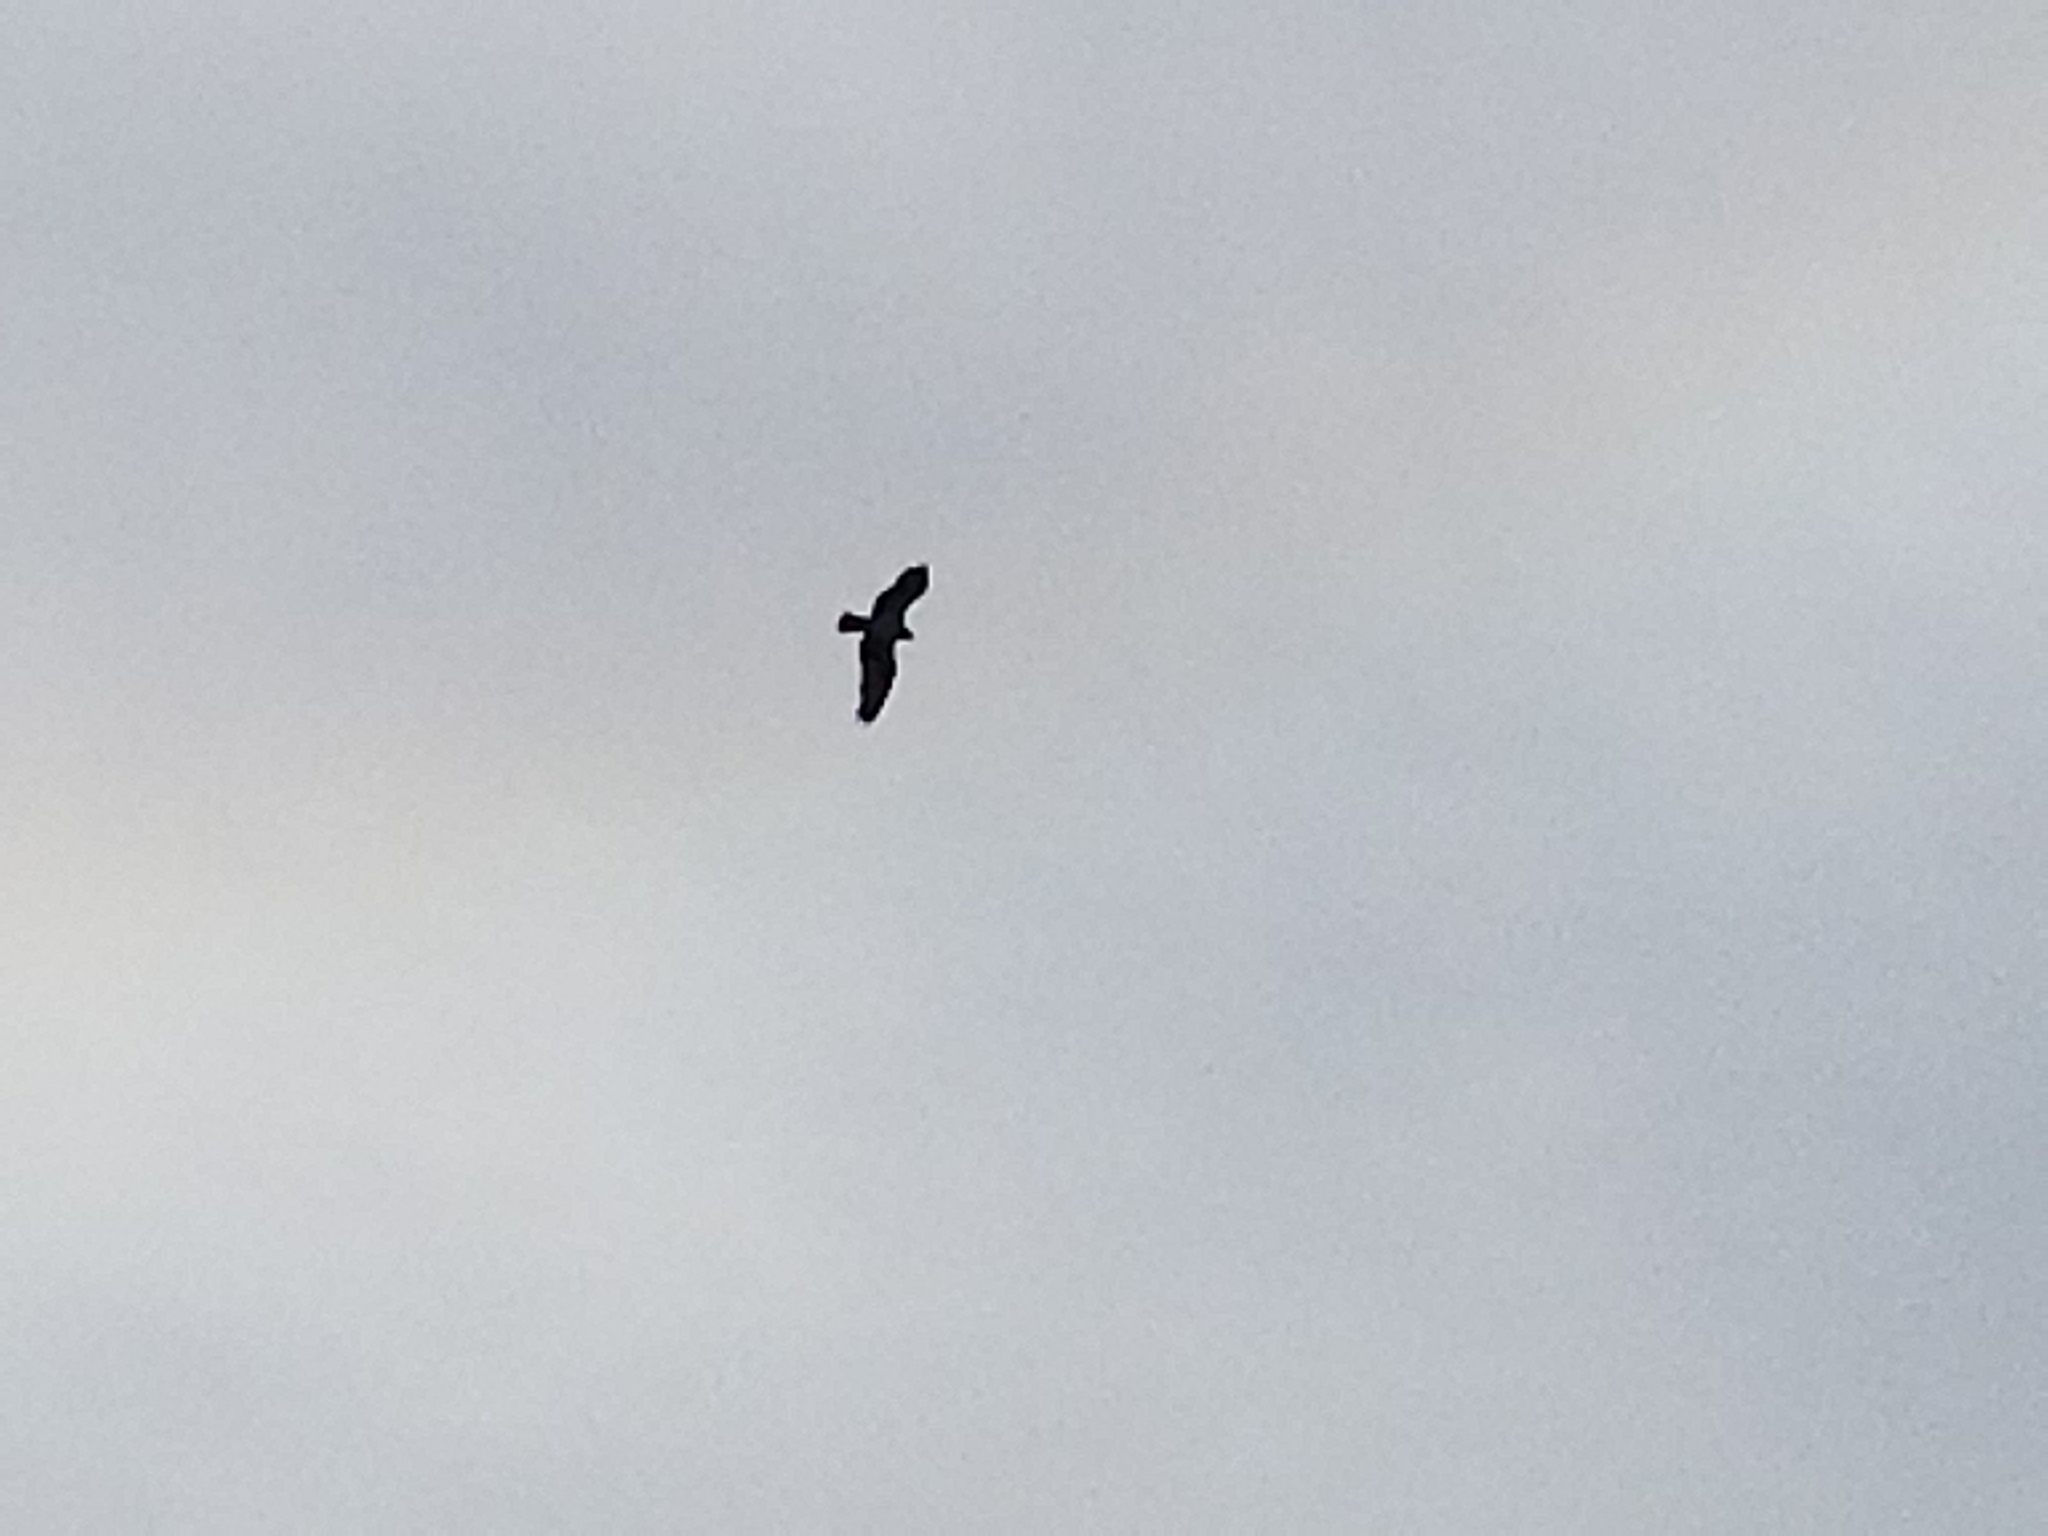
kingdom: Animalia
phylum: Chordata
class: Aves
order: Accipitriformes
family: Pandionidae
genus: Pandion
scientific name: Pandion haliaetus
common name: Osprey
